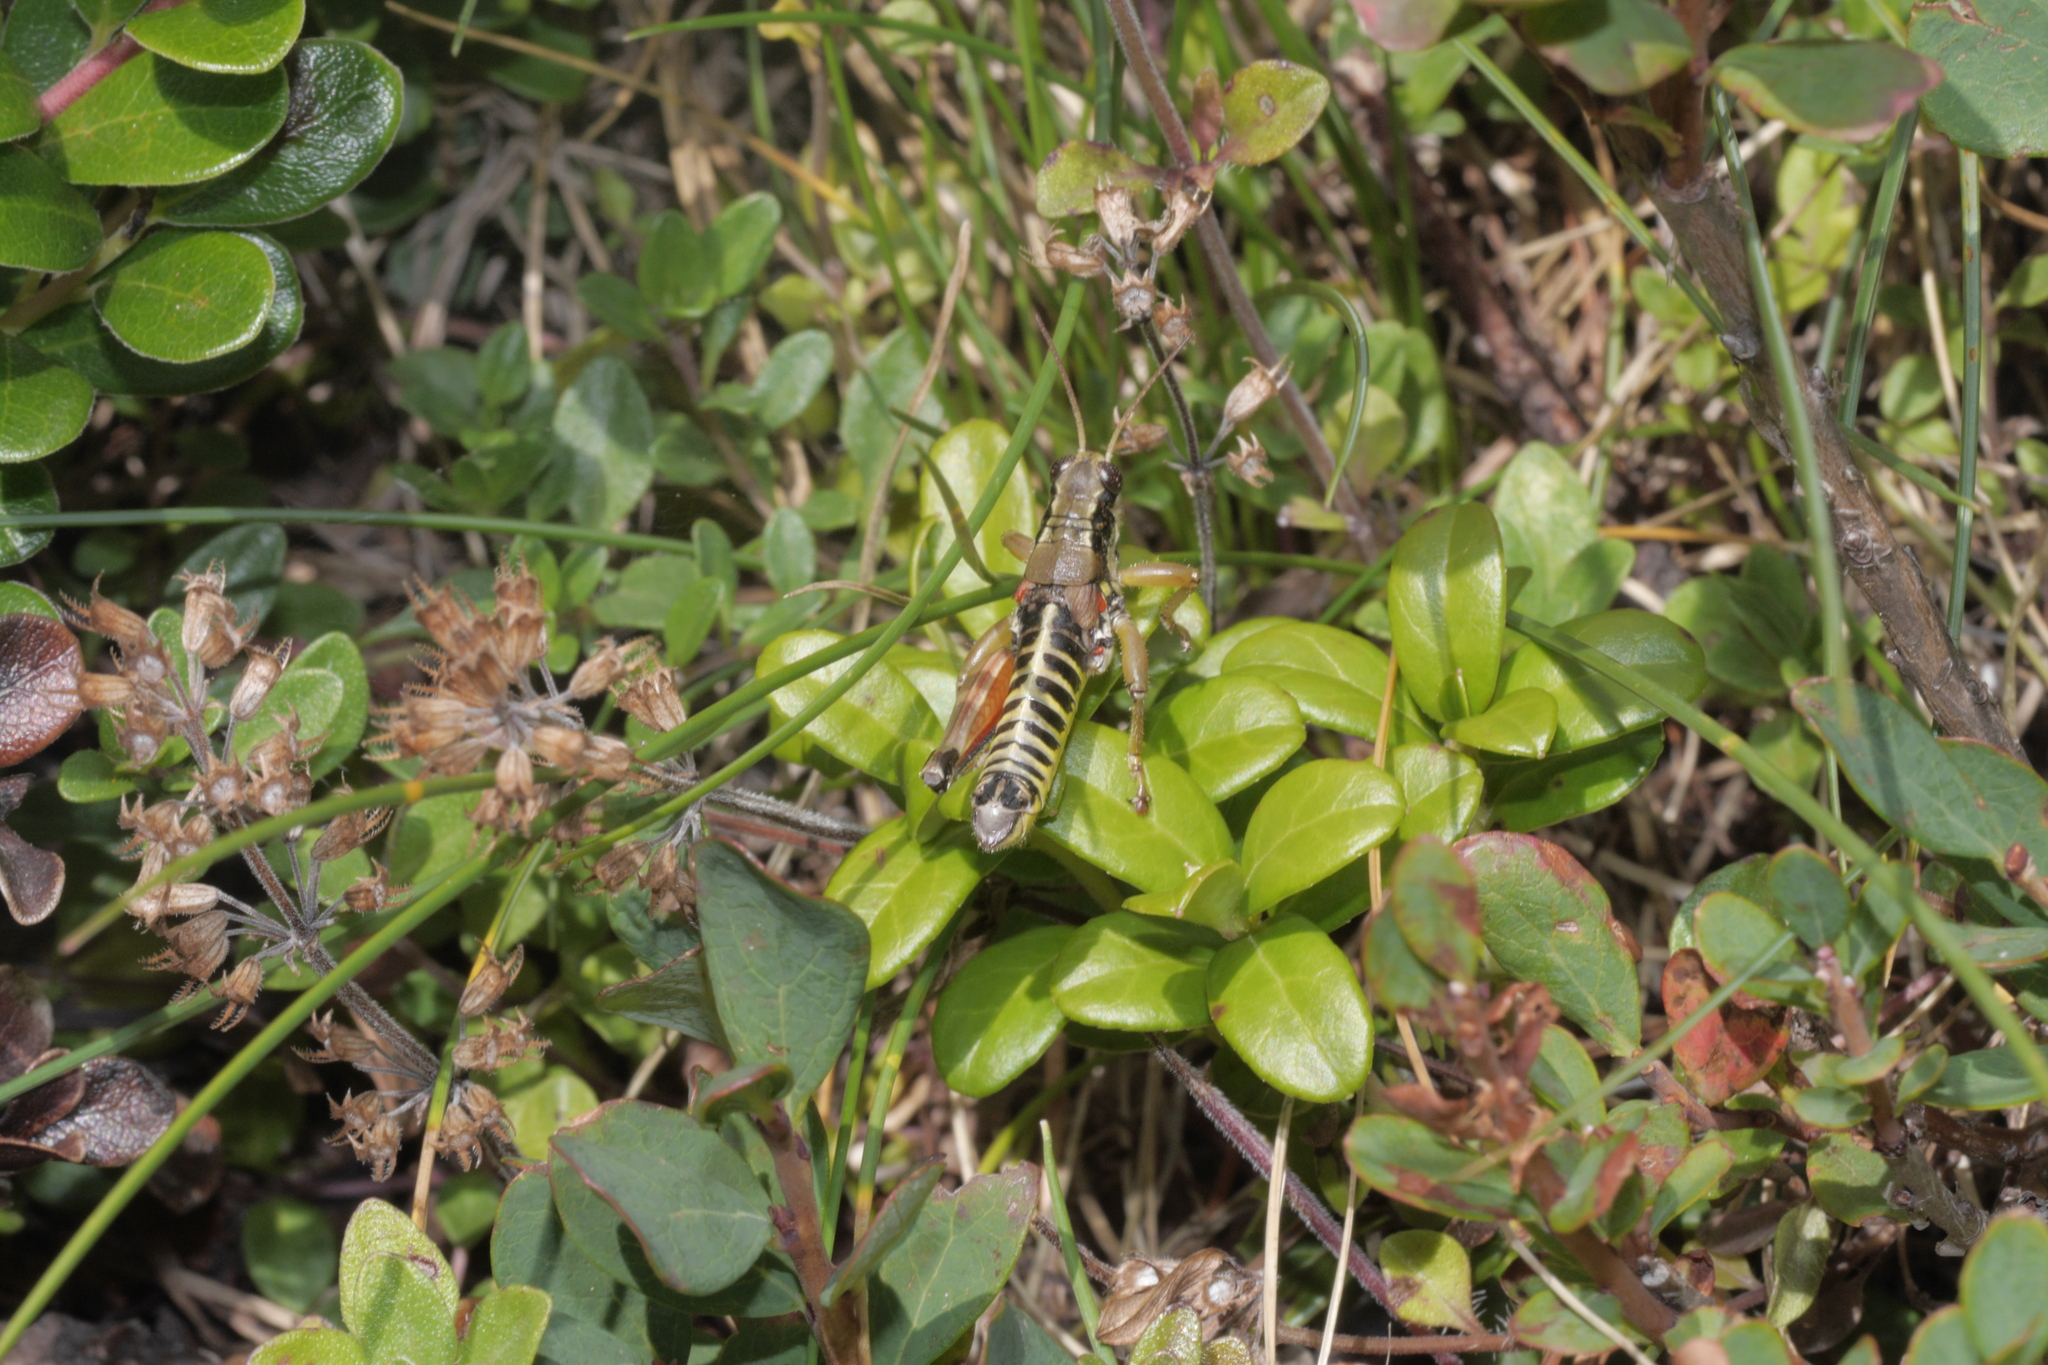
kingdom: Animalia
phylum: Arthropoda
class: Insecta
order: Orthoptera
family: Acrididae
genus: Podisma
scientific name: Podisma pedestris
